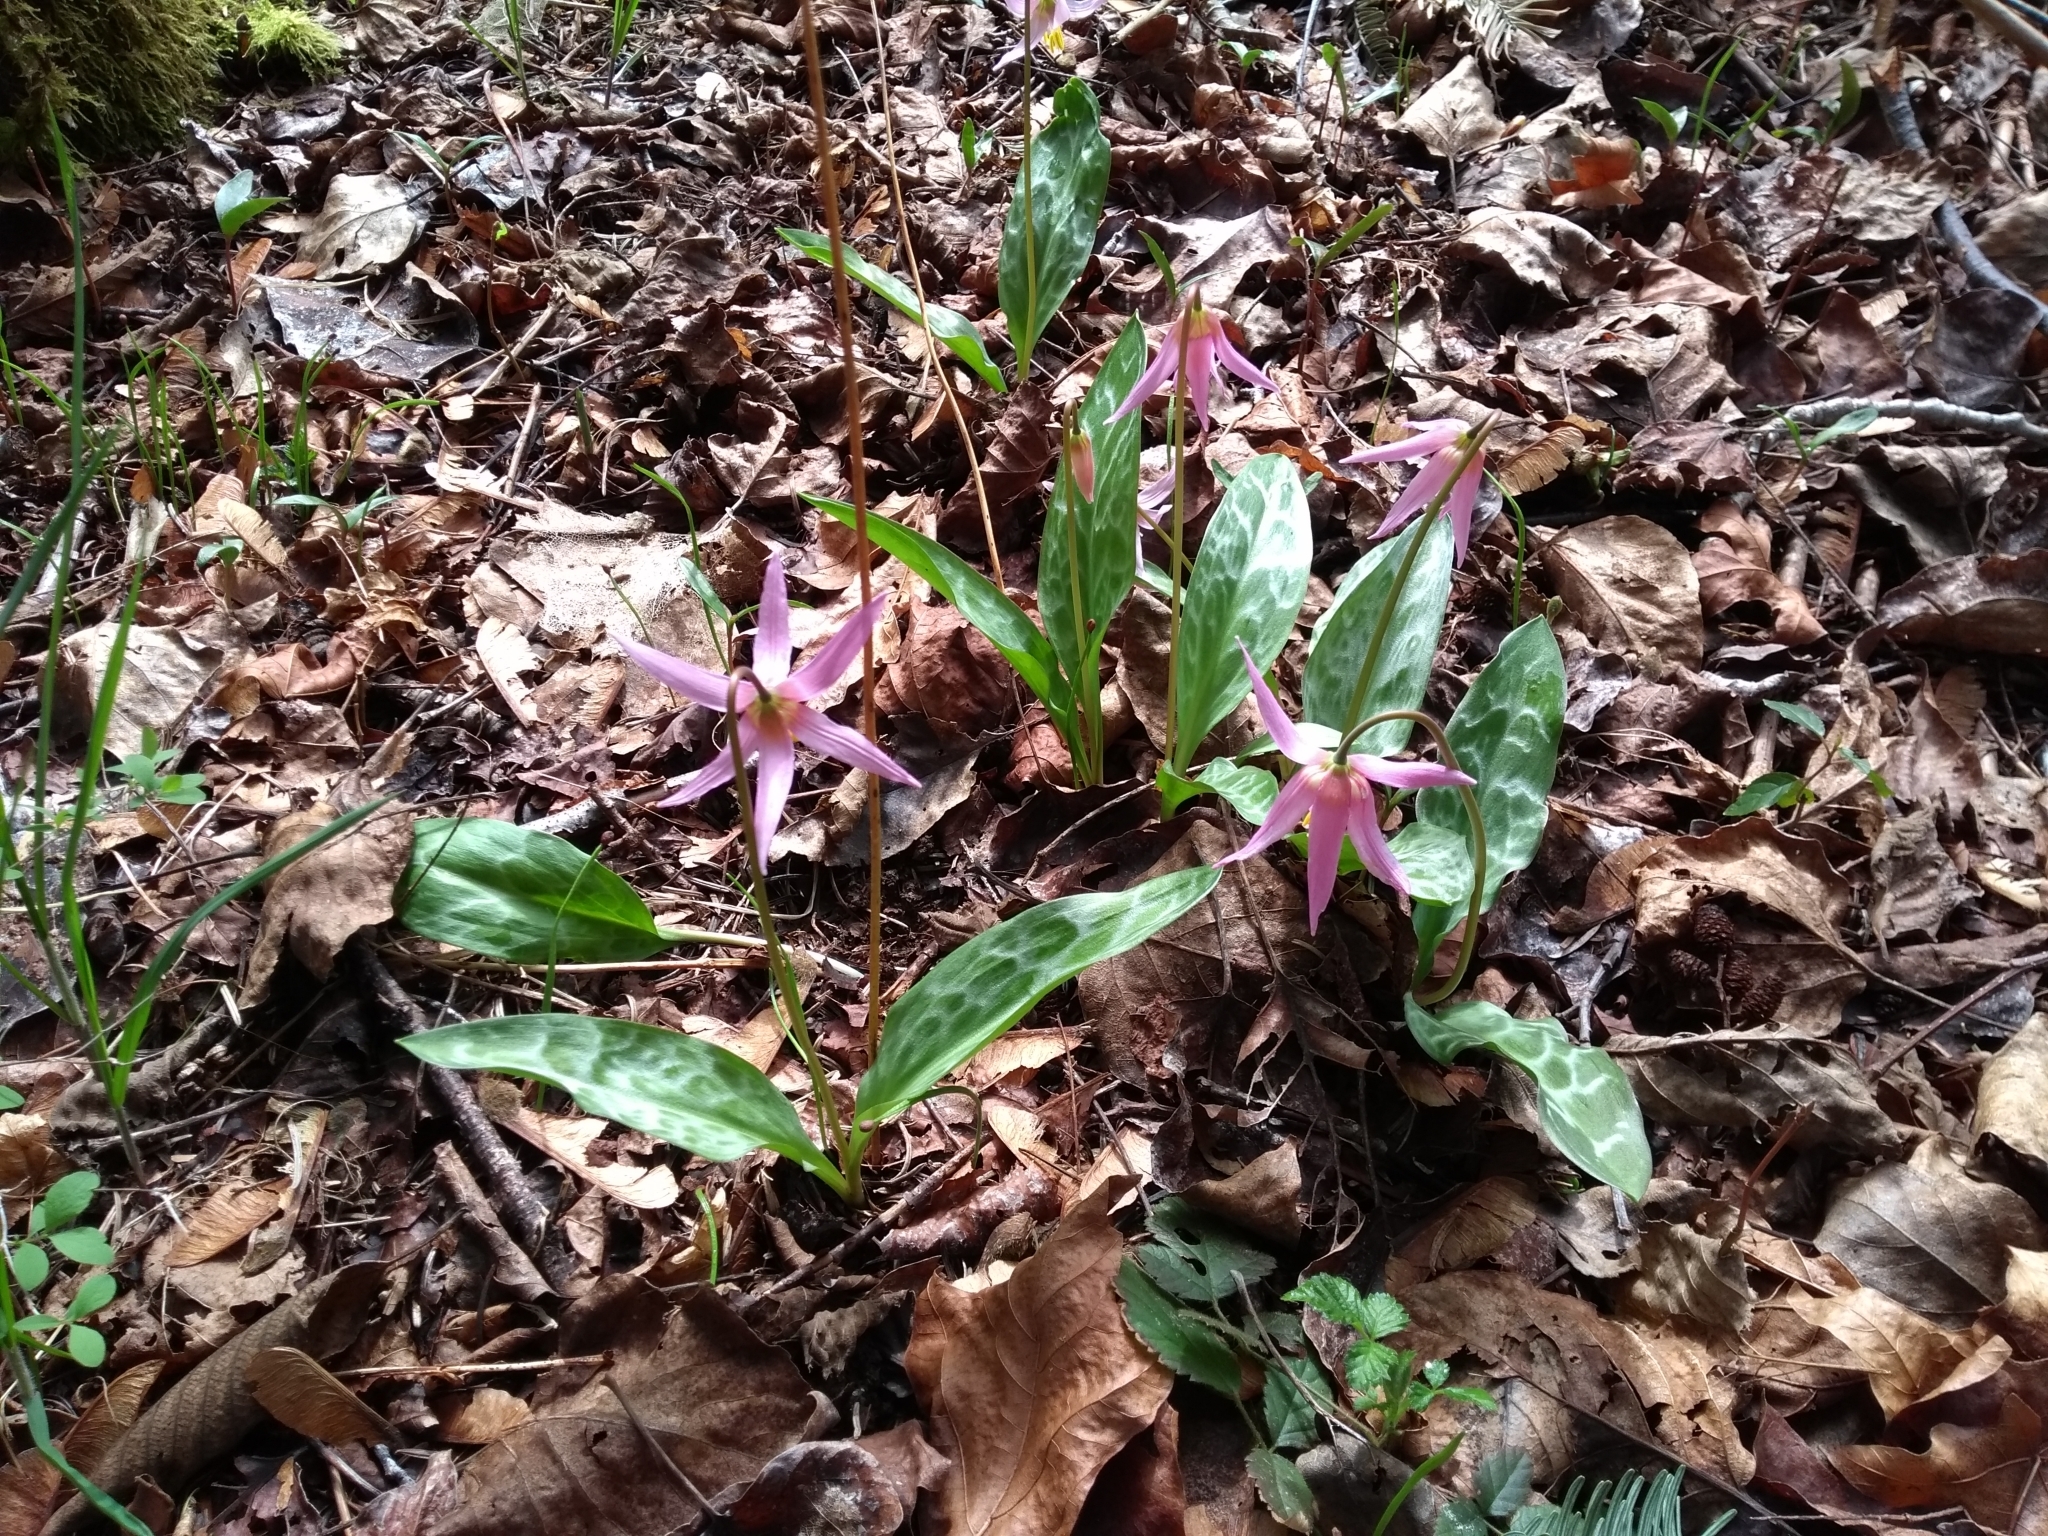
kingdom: Plantae
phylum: Tracheophyta
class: Liliopsida
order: Liliales
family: Liliaceae
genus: Erythronium
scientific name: Erythronium revolutum
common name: Pink fawn-lily
